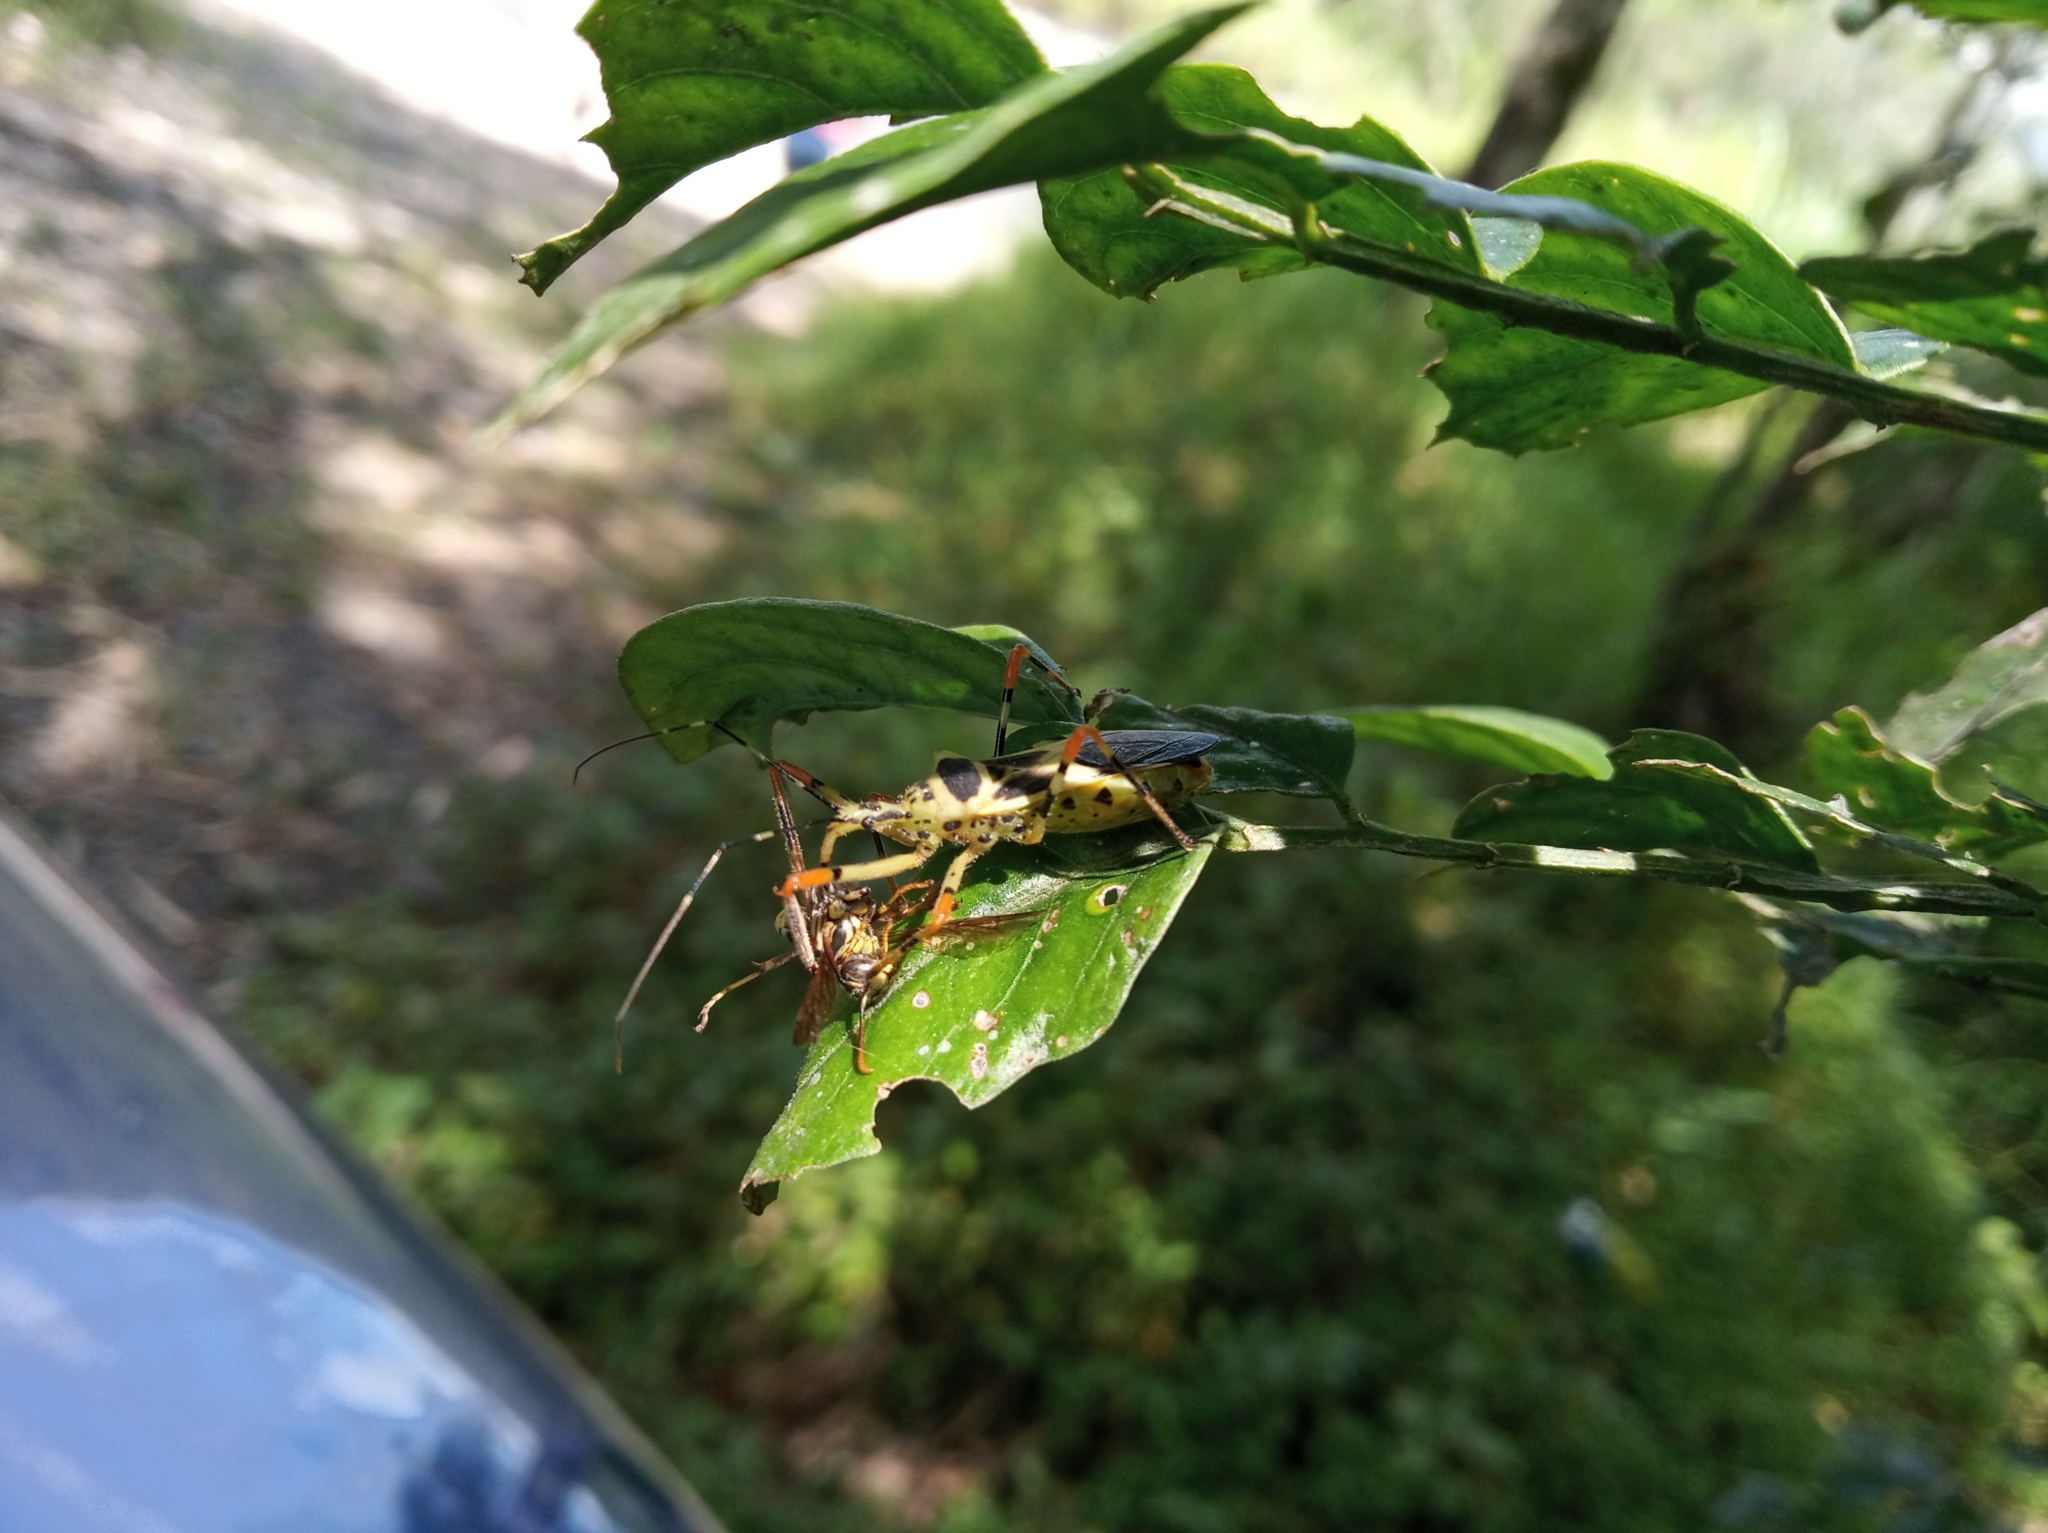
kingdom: Animalia
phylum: Arthropoda
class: Insecta
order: Hemiptera
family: Reduviidae
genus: Zelus
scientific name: Zelus armillatus
